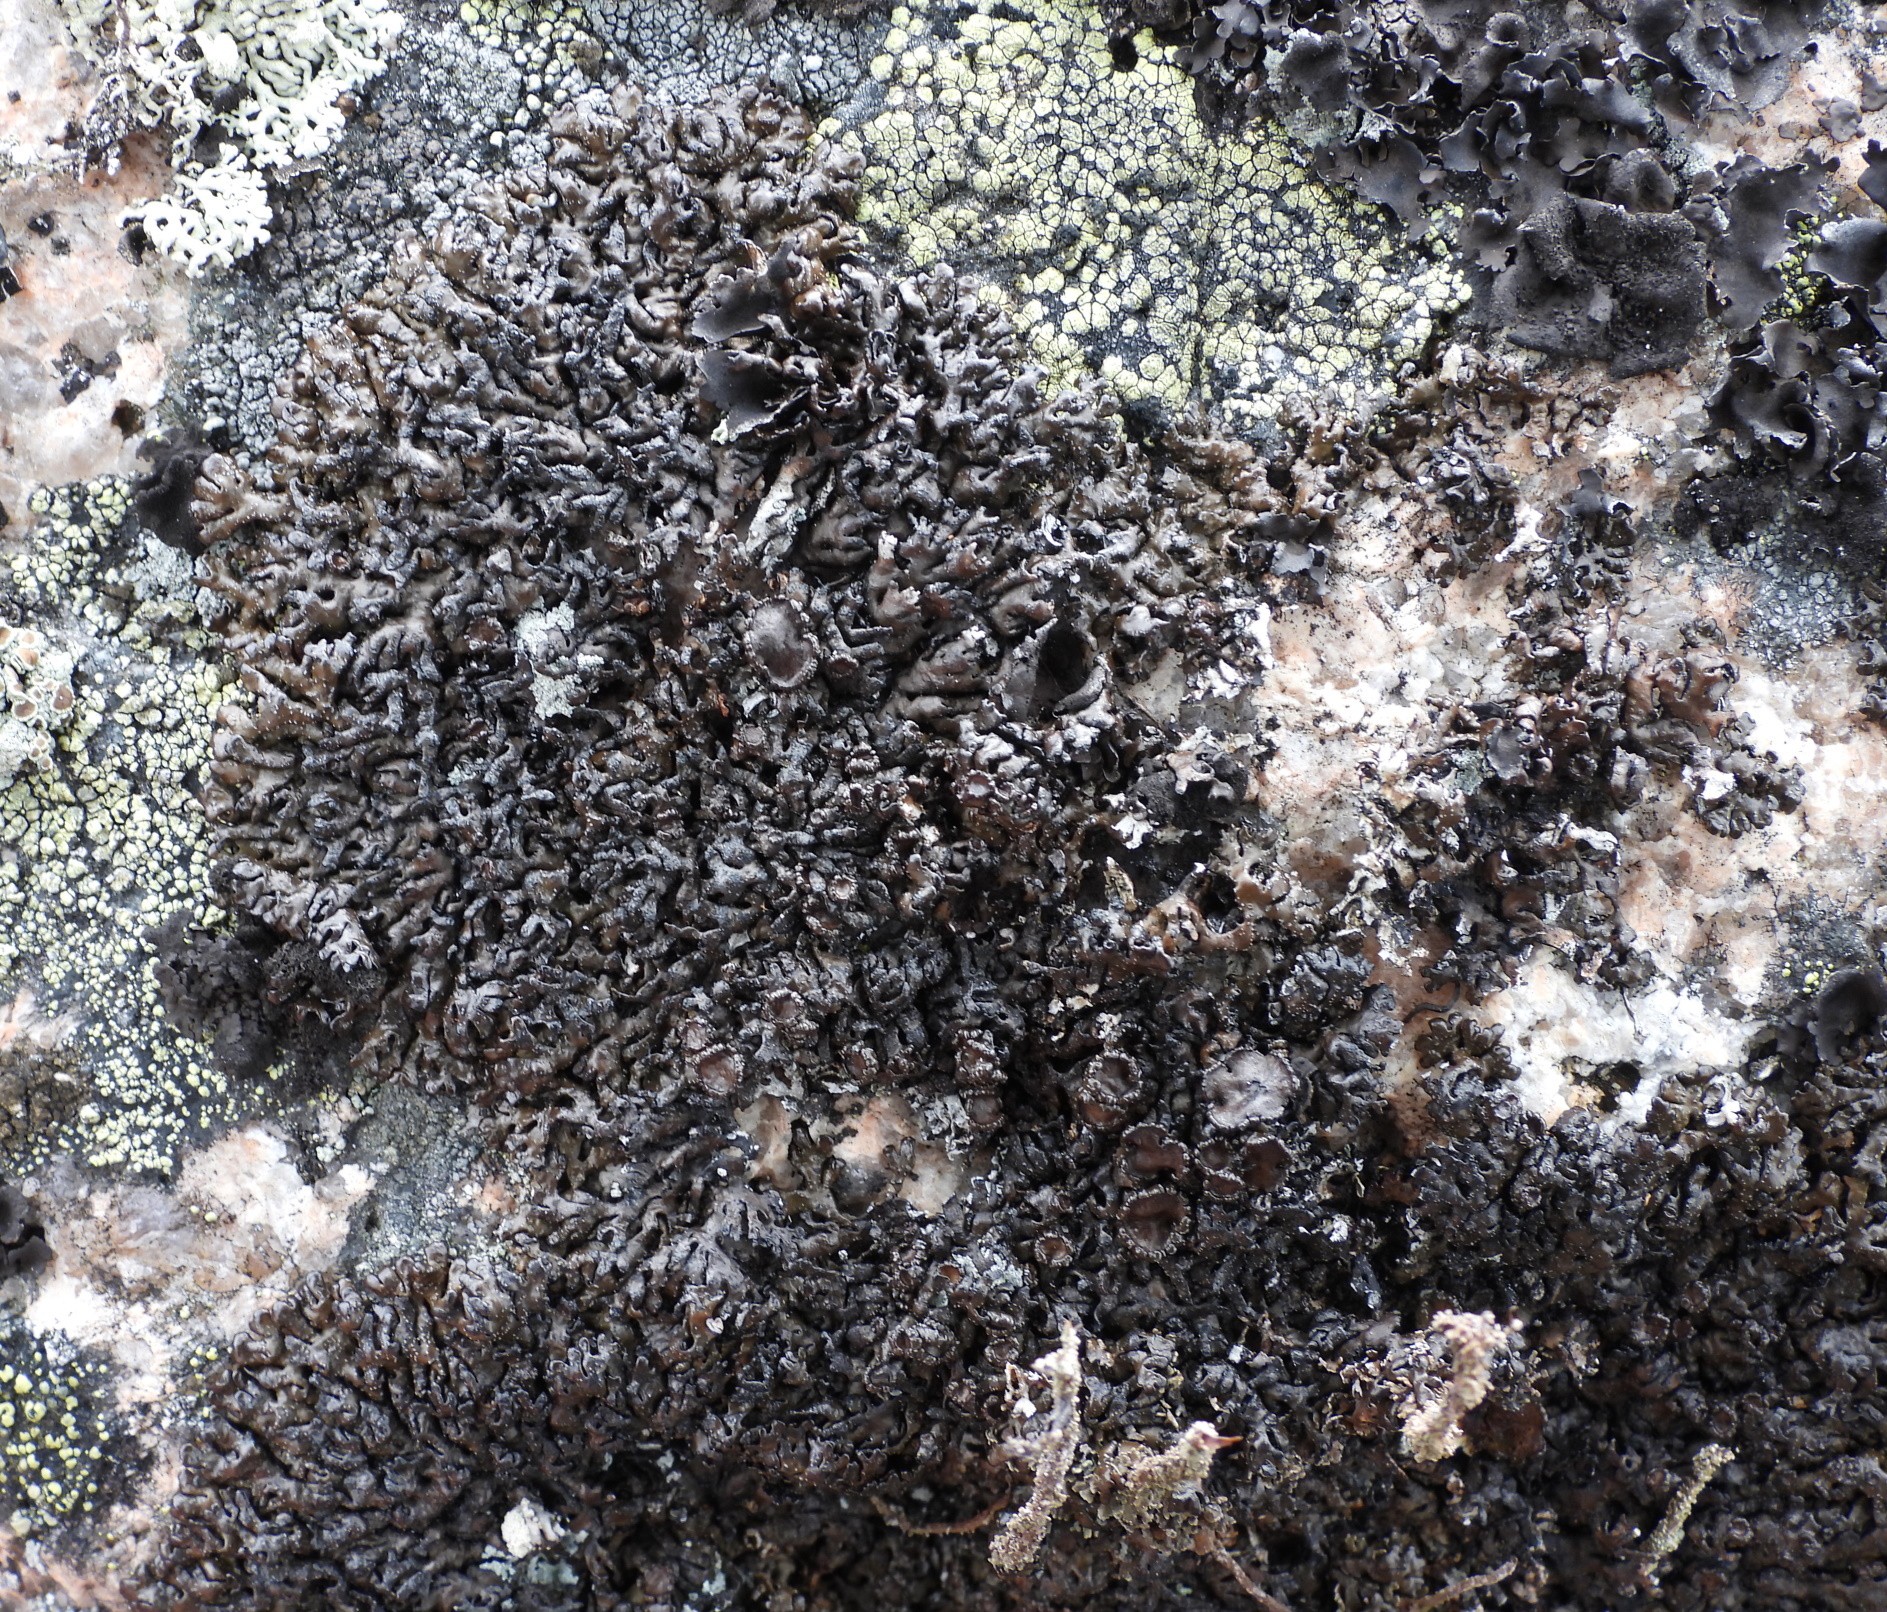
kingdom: Fungi
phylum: Ascomycota
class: Lecanoromycetes
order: Lecanorales
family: Parmeliaceae
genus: Melanelia
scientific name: Melanelia stygia
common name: Alpine camouflage lichen
